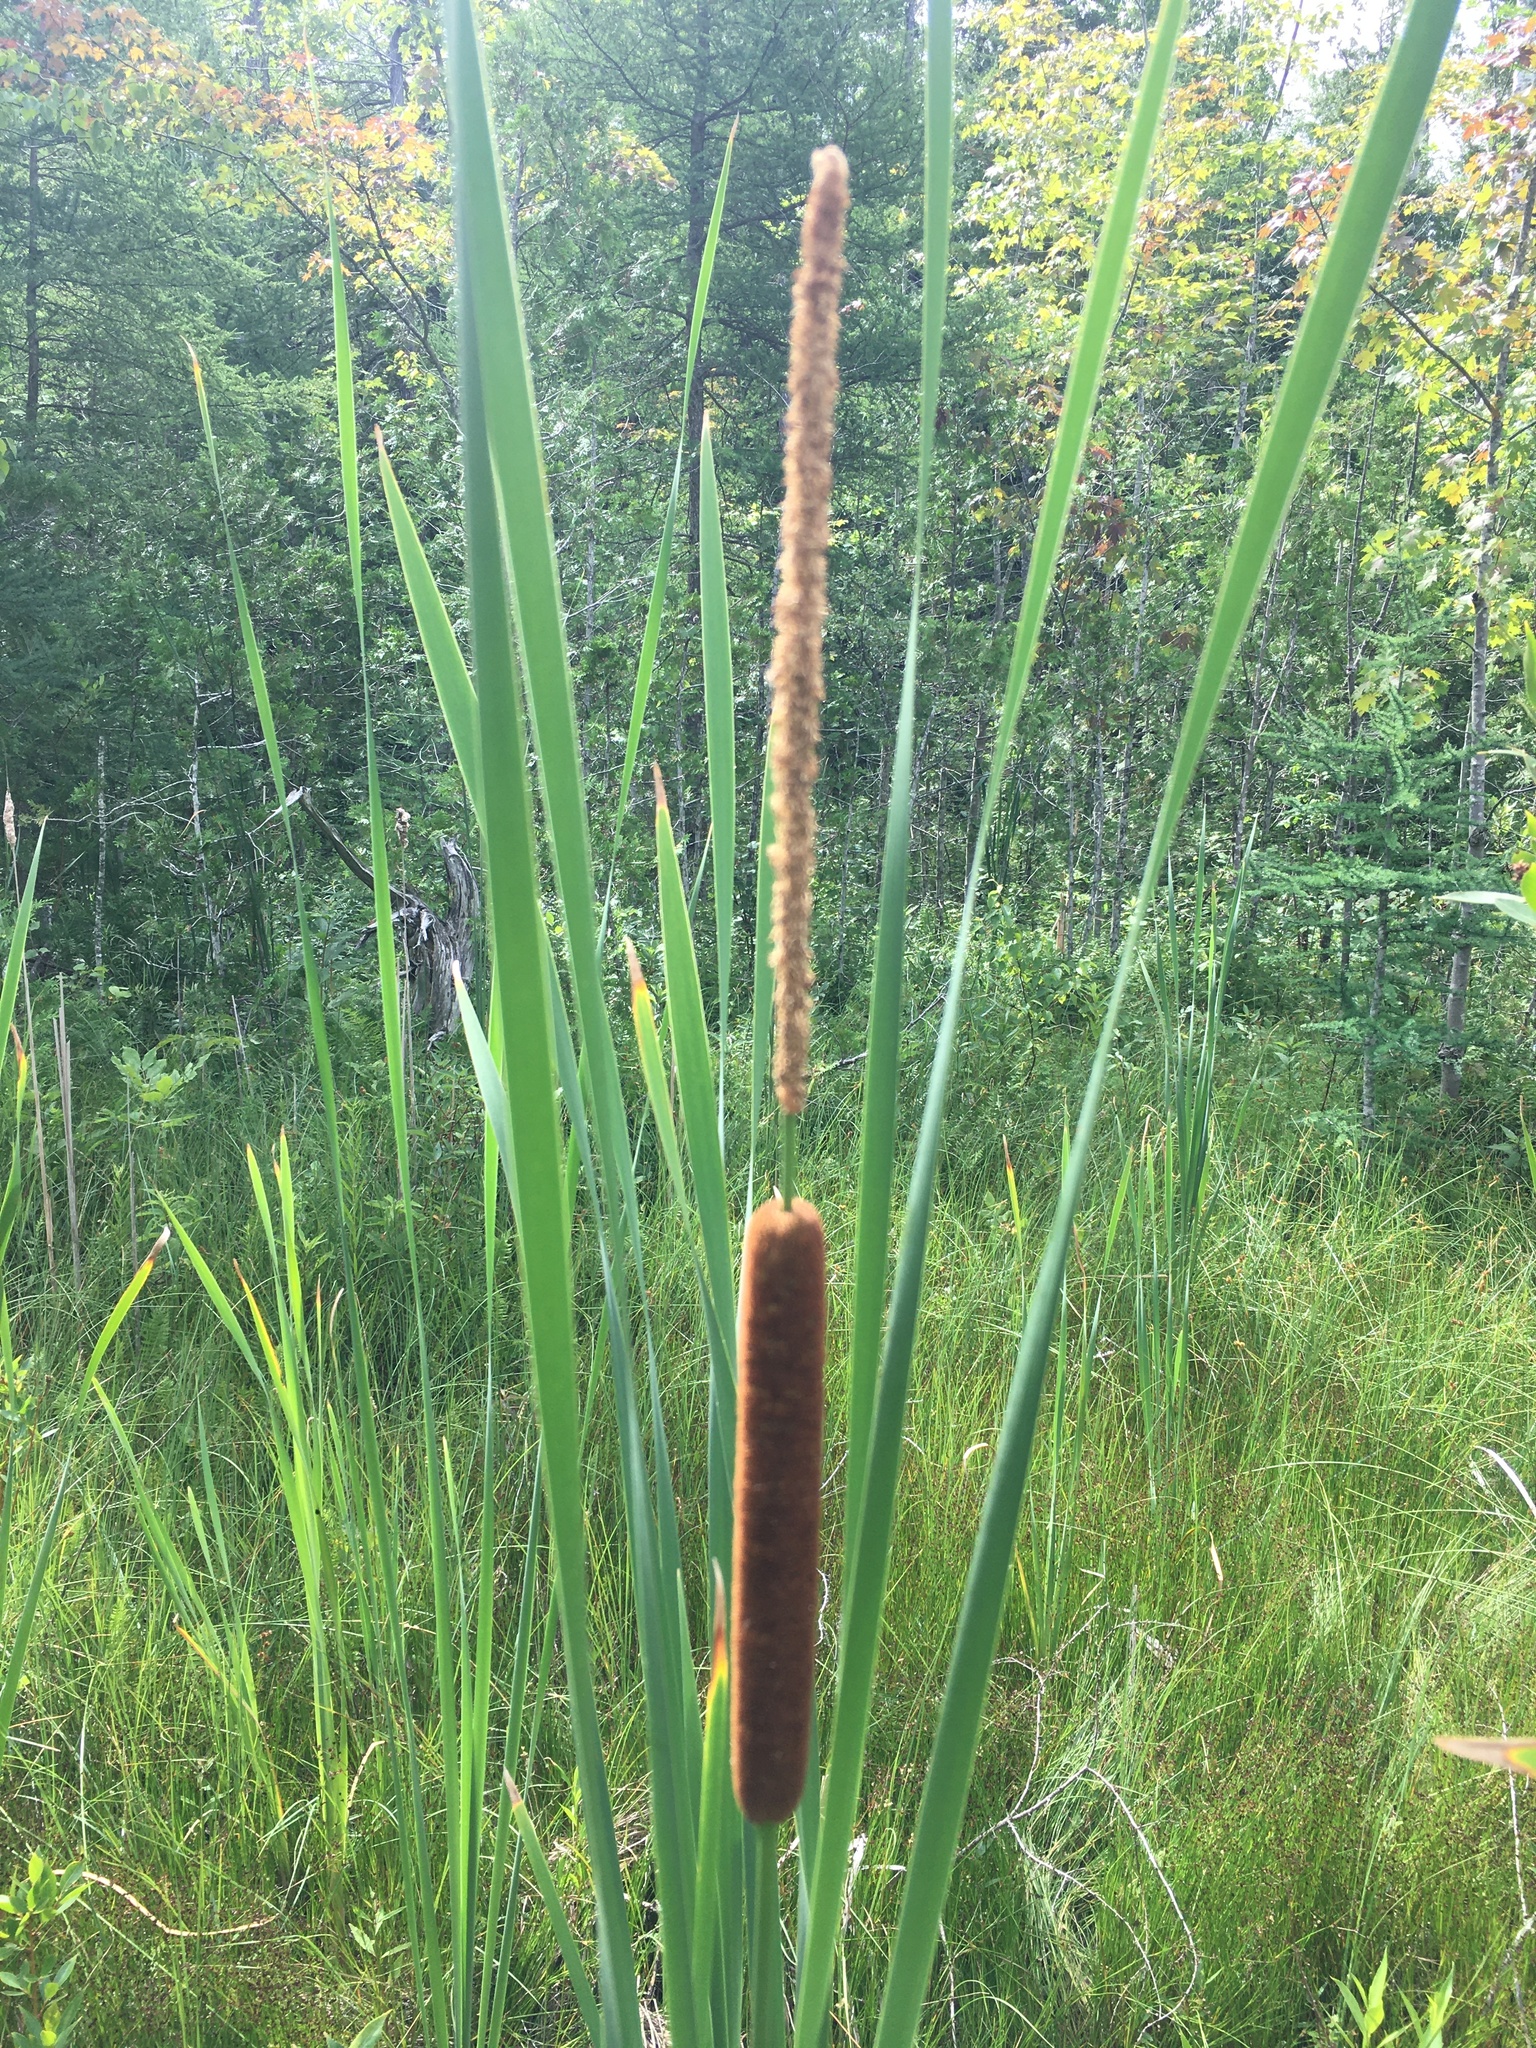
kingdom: Plantae
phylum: Tracheophyta
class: Liliopsida
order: Poales
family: Typhaceae
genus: Typha
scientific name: Typha angustifolia
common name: Lesser bulrush
